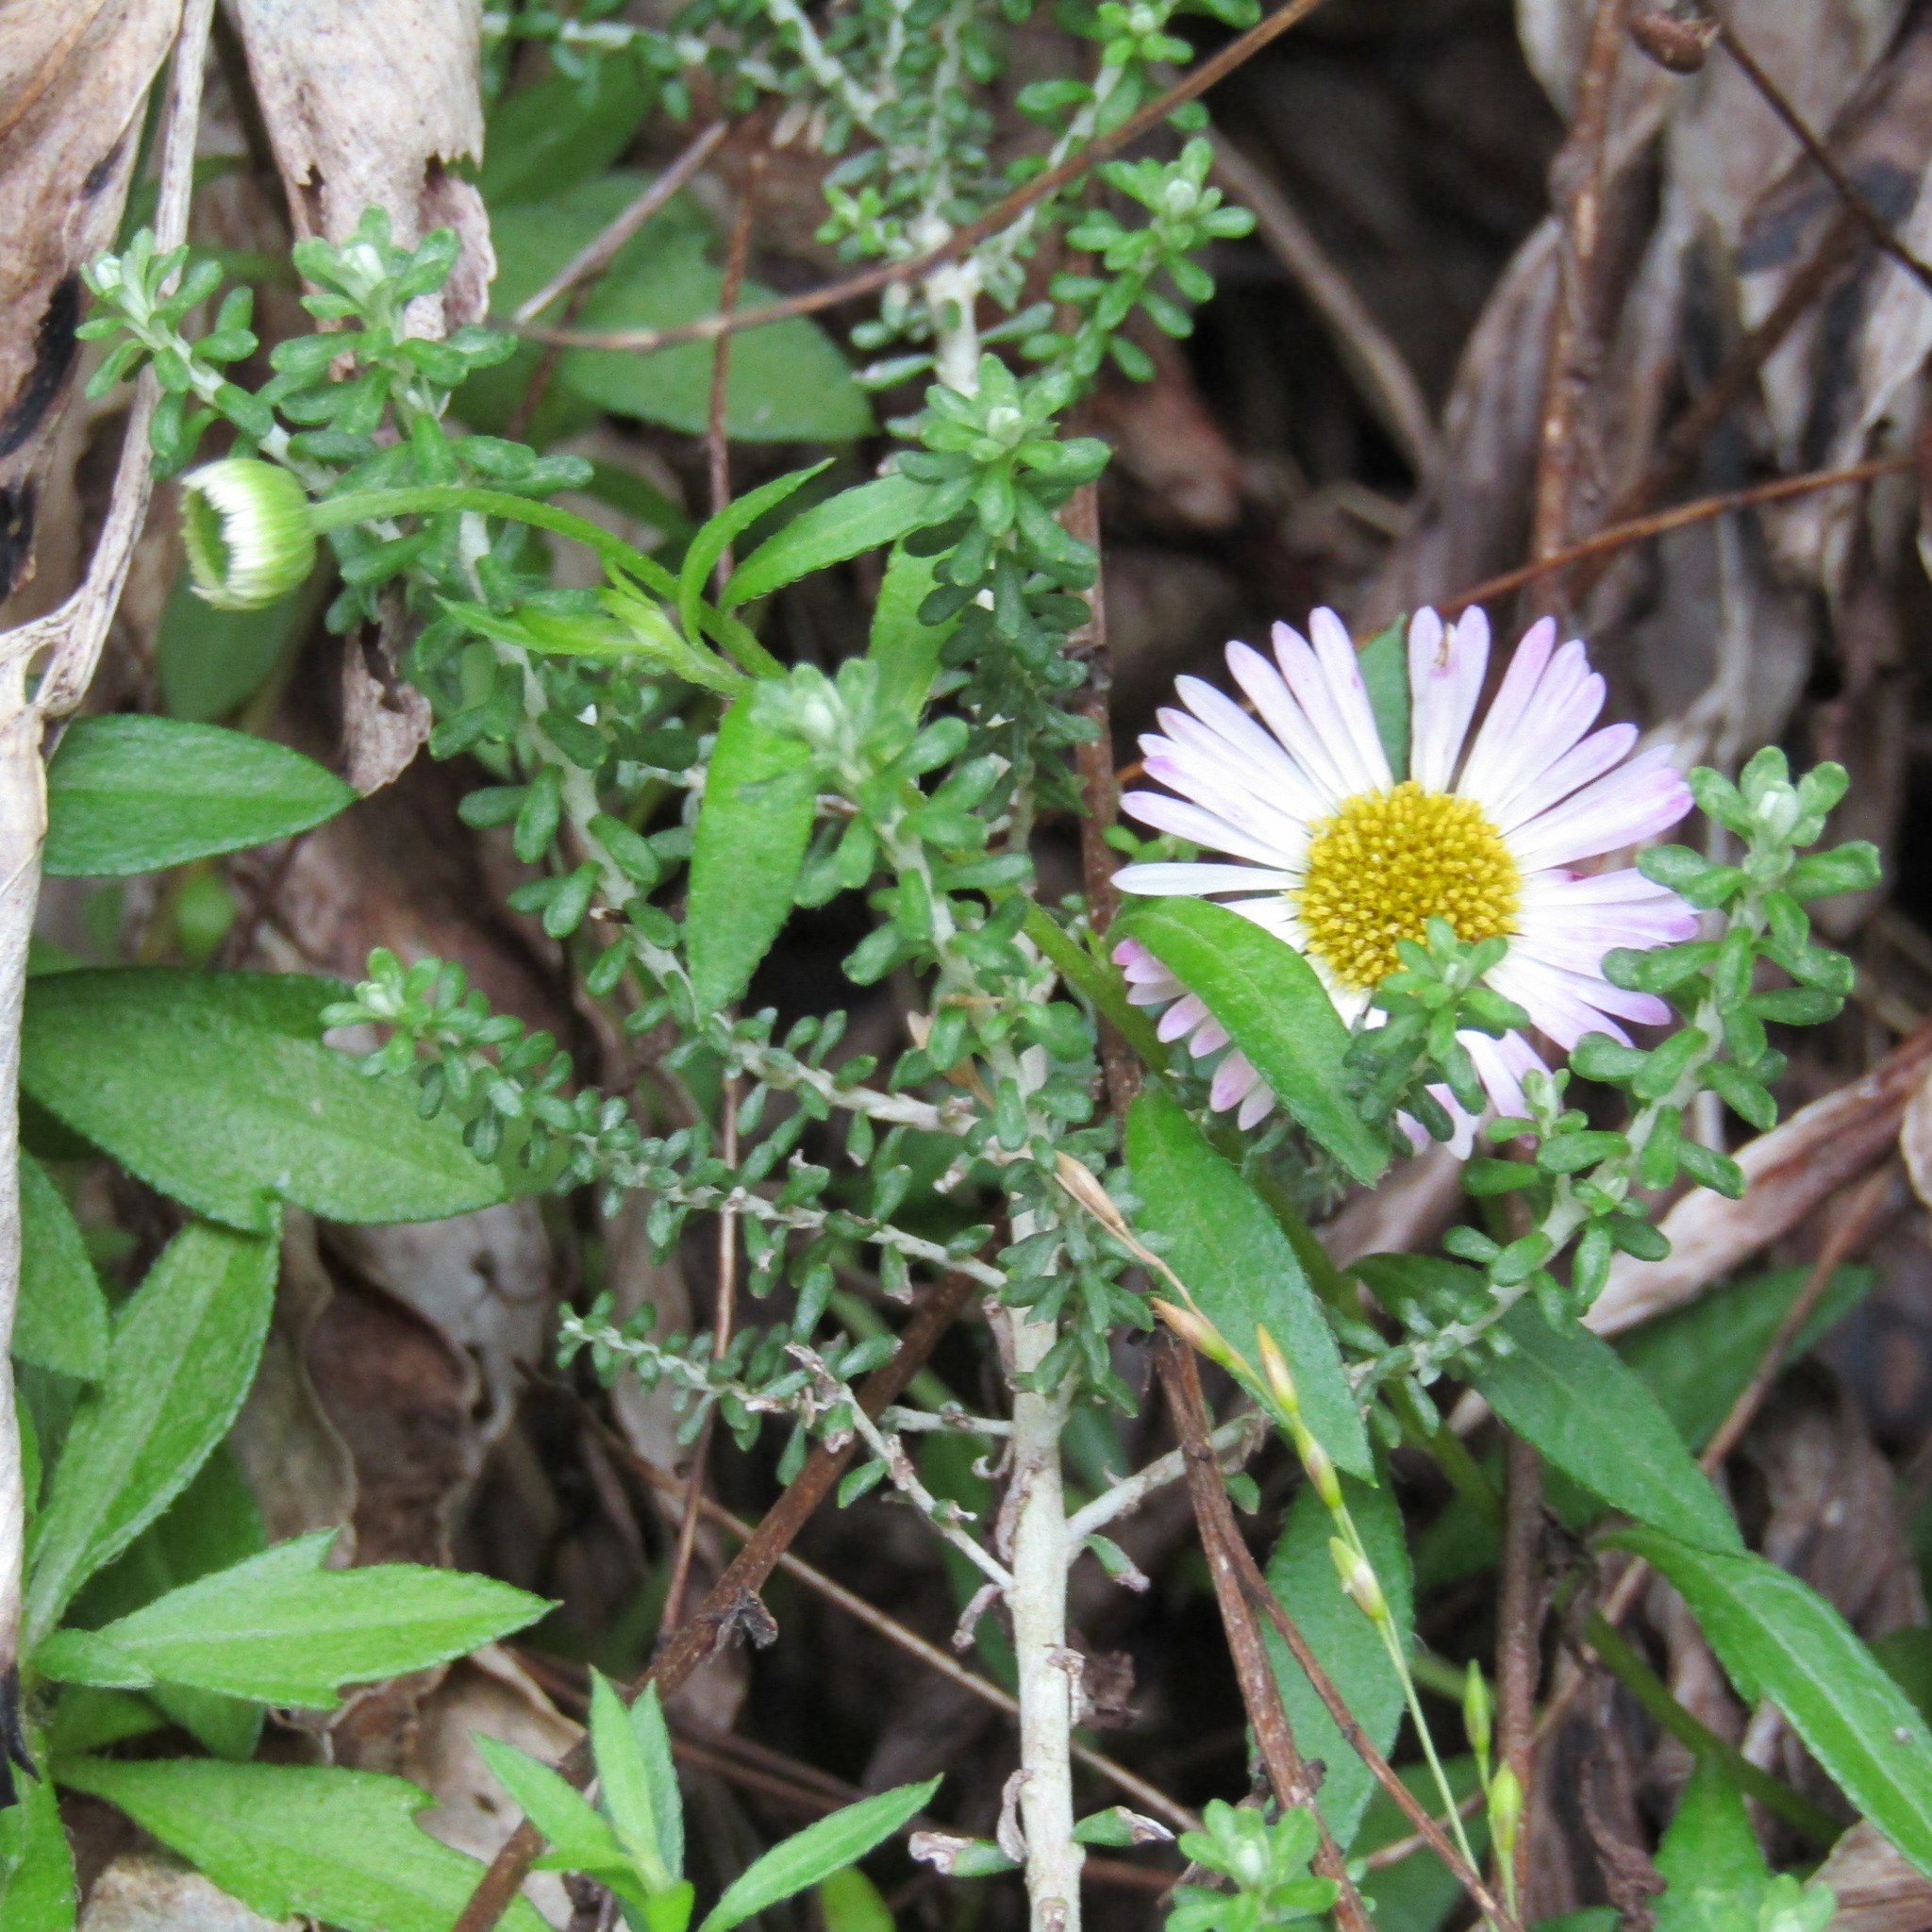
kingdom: Plantae
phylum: Tracheophyta
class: Magnoliopsida
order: Asterales
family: Asteraceae
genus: Ozothamnus
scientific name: Ozothamnus leptophyllus
